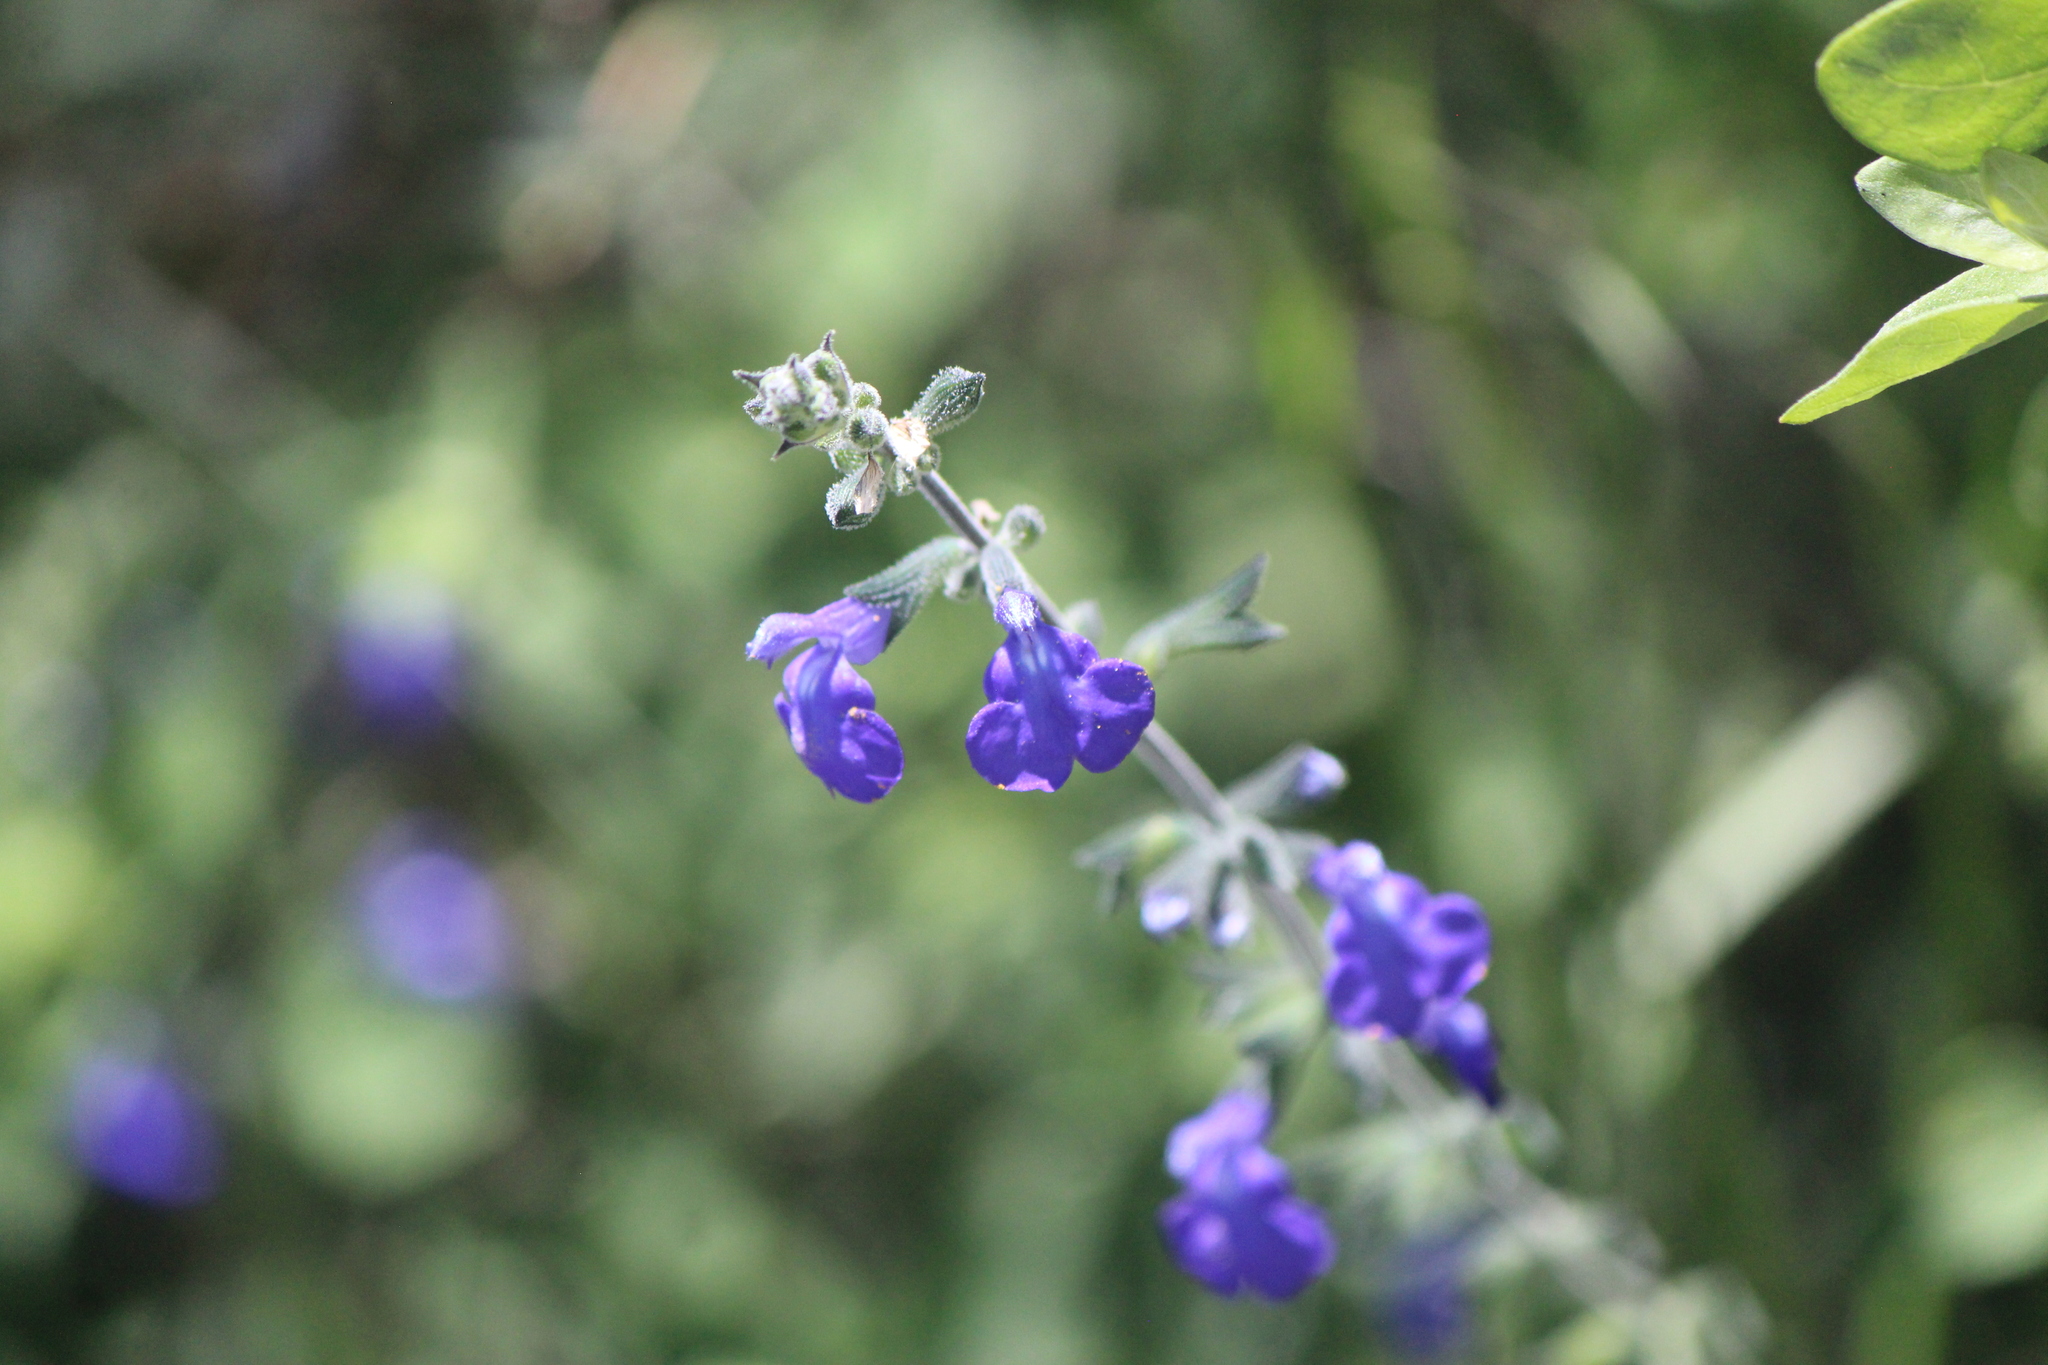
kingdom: Plantae
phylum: Tracheophyta
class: Magnoliopsida
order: Lamiales
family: Lamiaceae
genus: Salvia
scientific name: Salvia chamaedryoides
